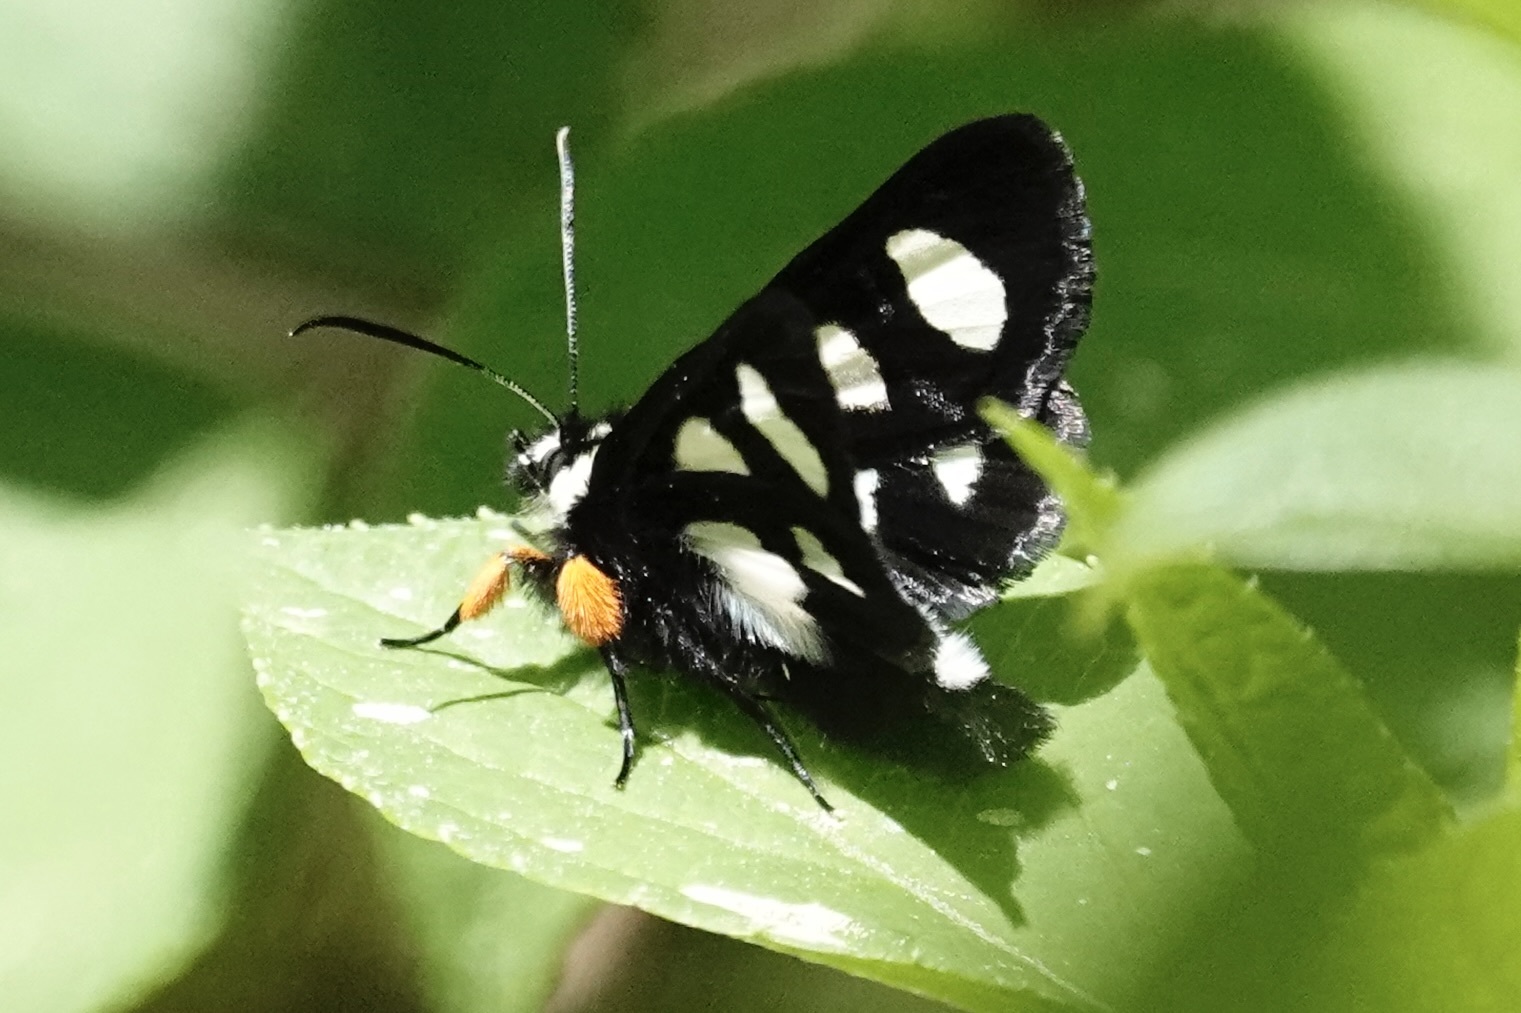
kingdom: Animalia
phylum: Arthropoda
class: Insecta
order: Lepidoptera
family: Noctuidae
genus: Alypia
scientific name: Alypia octomaculata
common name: Eight-spotted forester
